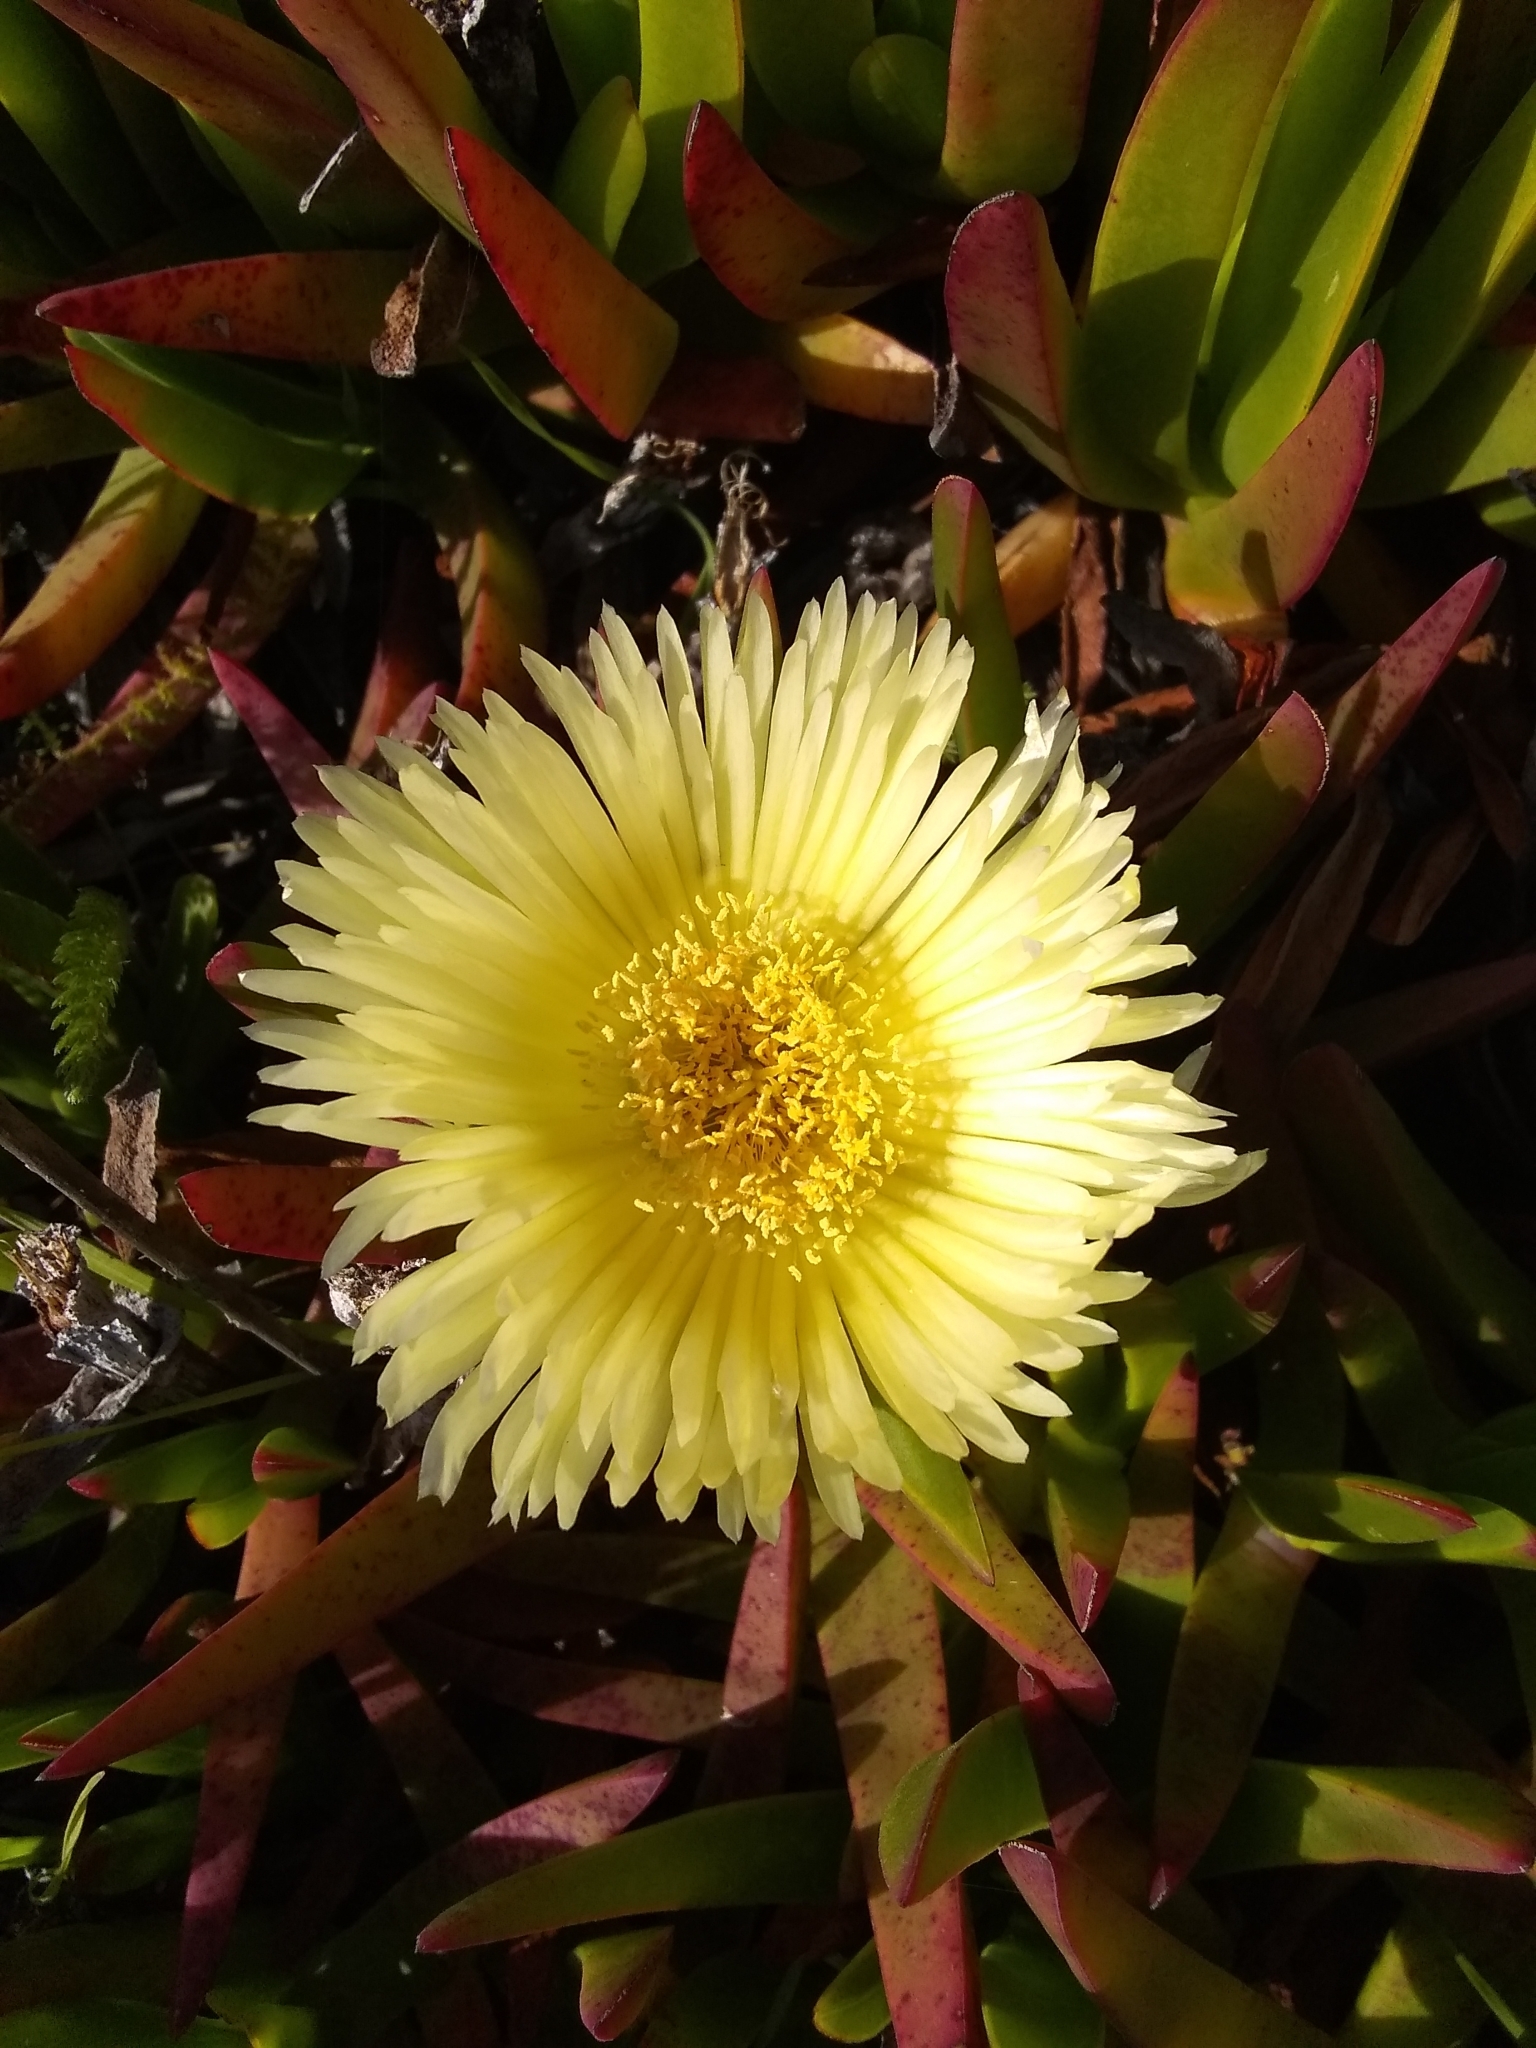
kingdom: Plantae
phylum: Tracheophyta
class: Magnoliopsida
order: Caryophyllales
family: Aizoaceae
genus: Carpobrotus
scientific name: Carpobrotus edulis
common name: Hottentot-fig
